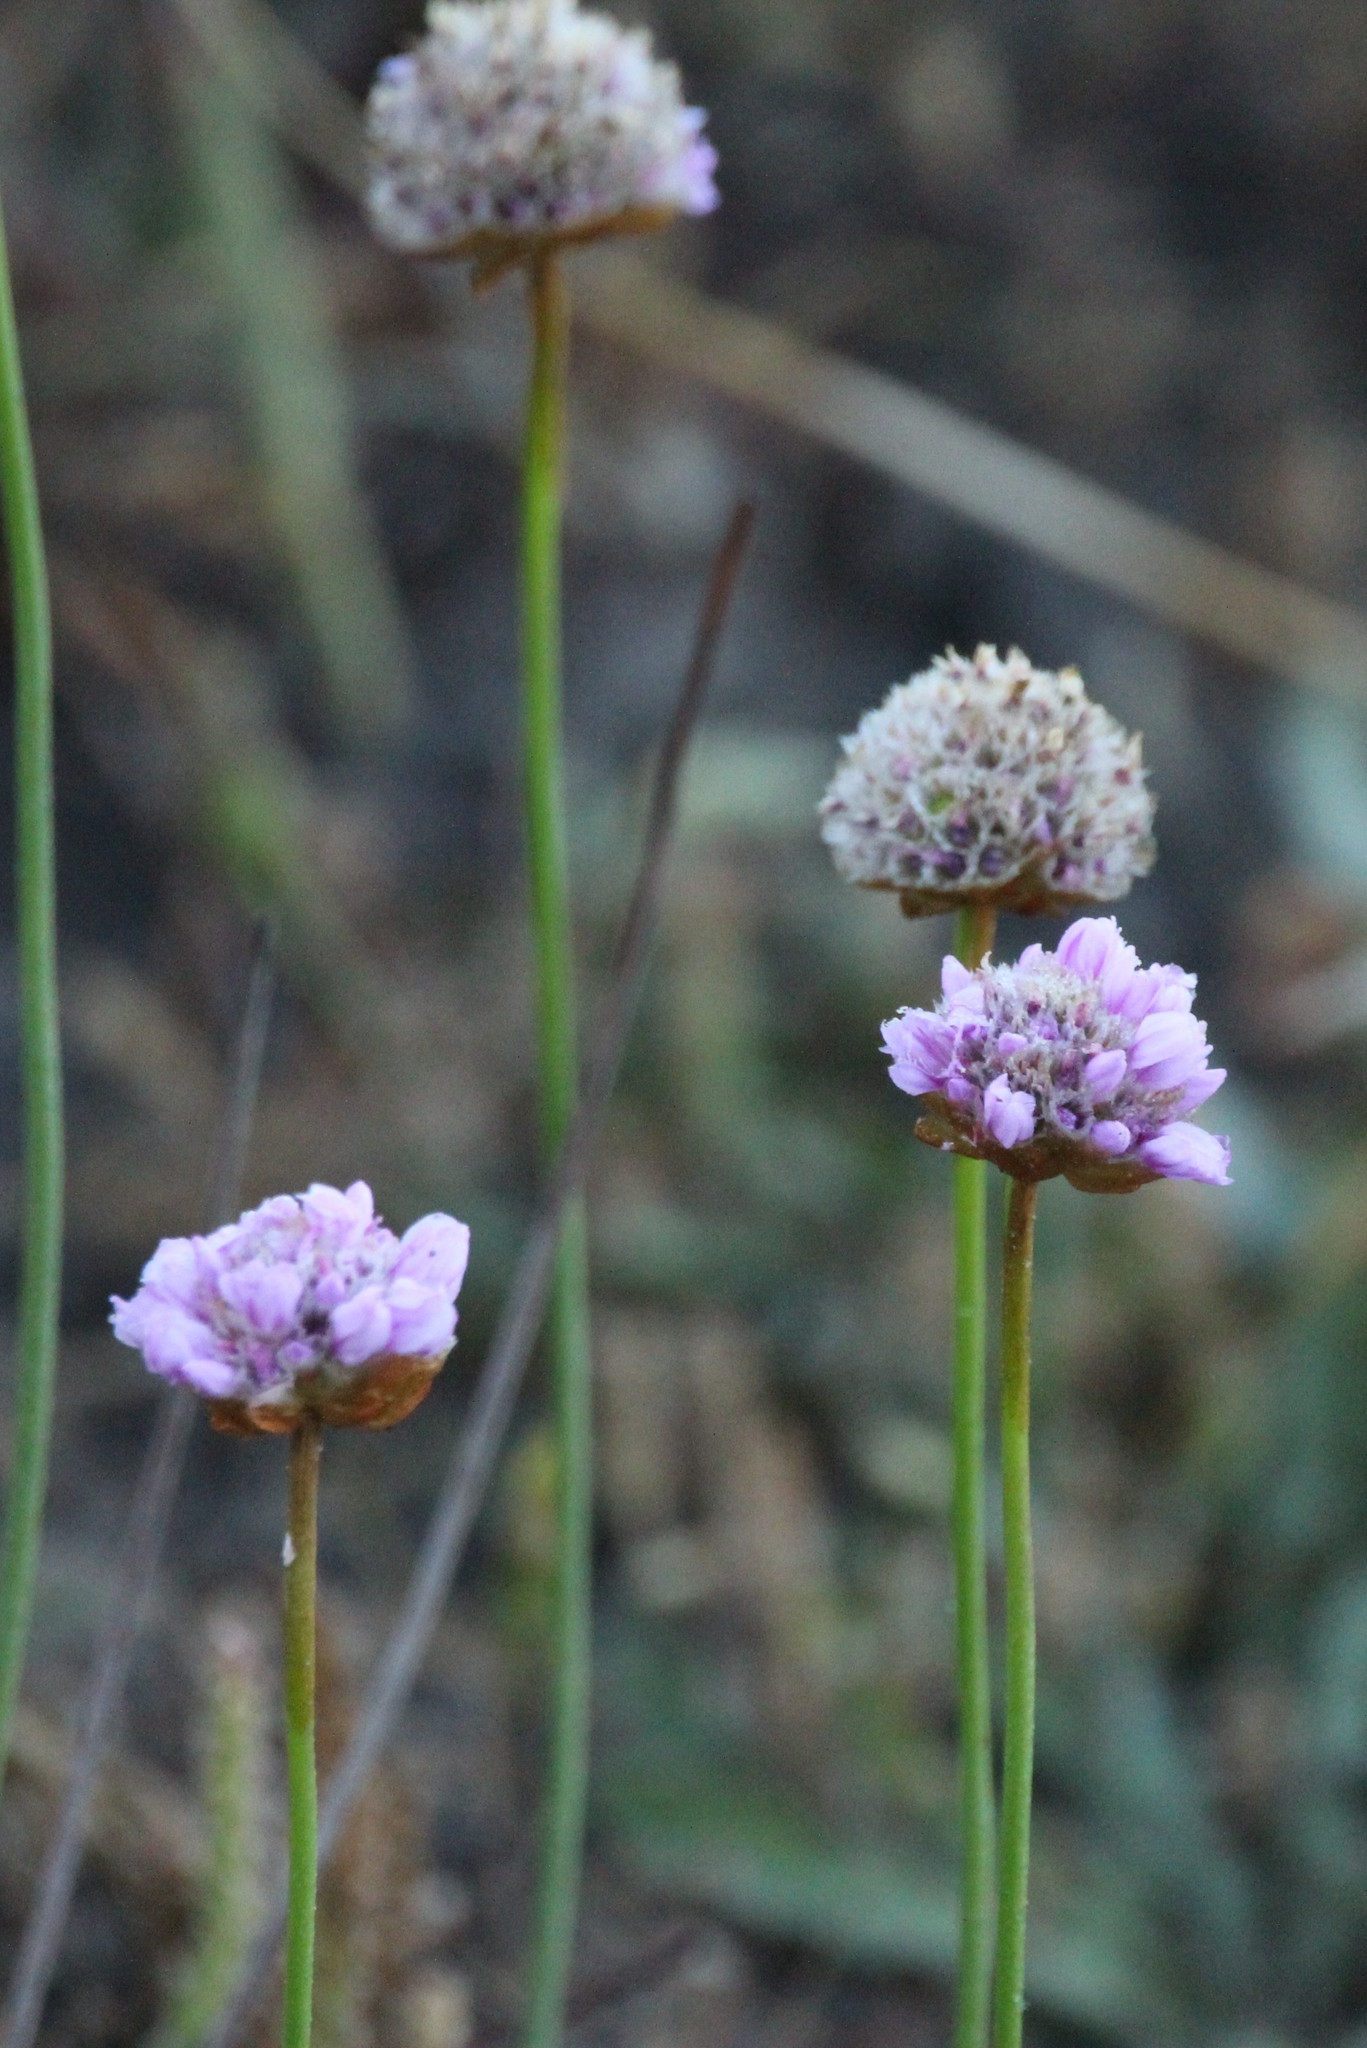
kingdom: Plantae
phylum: Tracheophyta
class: Magnoliopsida
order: Caryophyllales
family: Plumbaginaceae
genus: Armeria
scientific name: Armeria maritima
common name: Thrift
